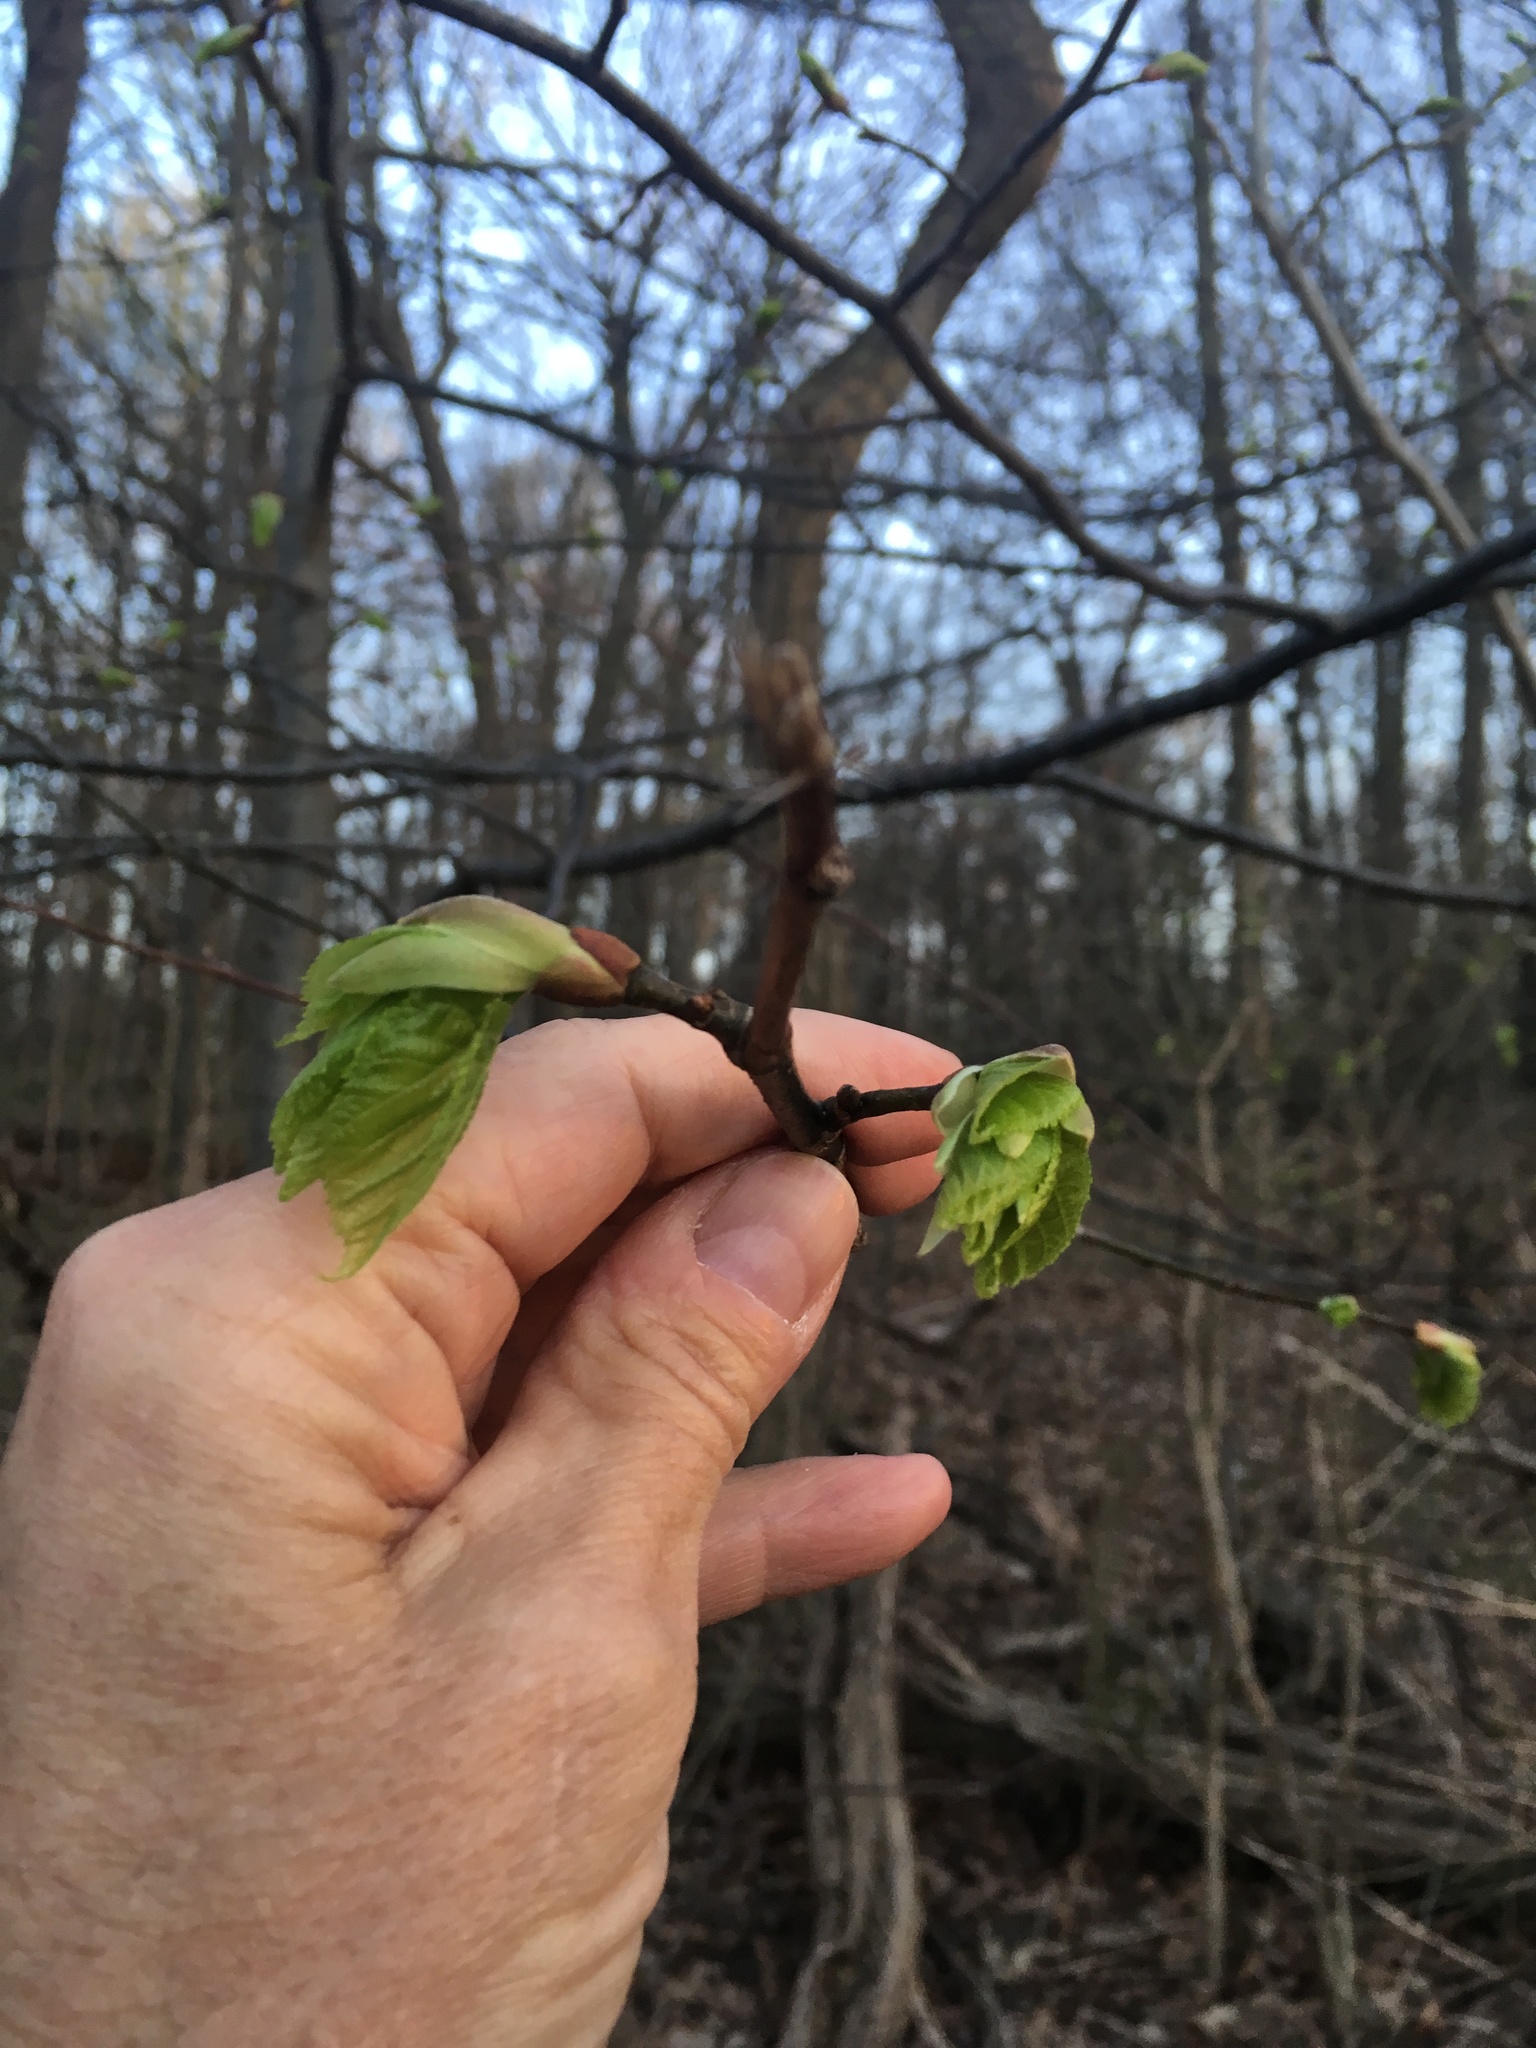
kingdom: Plantae
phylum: Tracheophyta
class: Magnoliopsida
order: Malvales
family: Malvaceae
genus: Tilia
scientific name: Tilia americana
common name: Basswood
